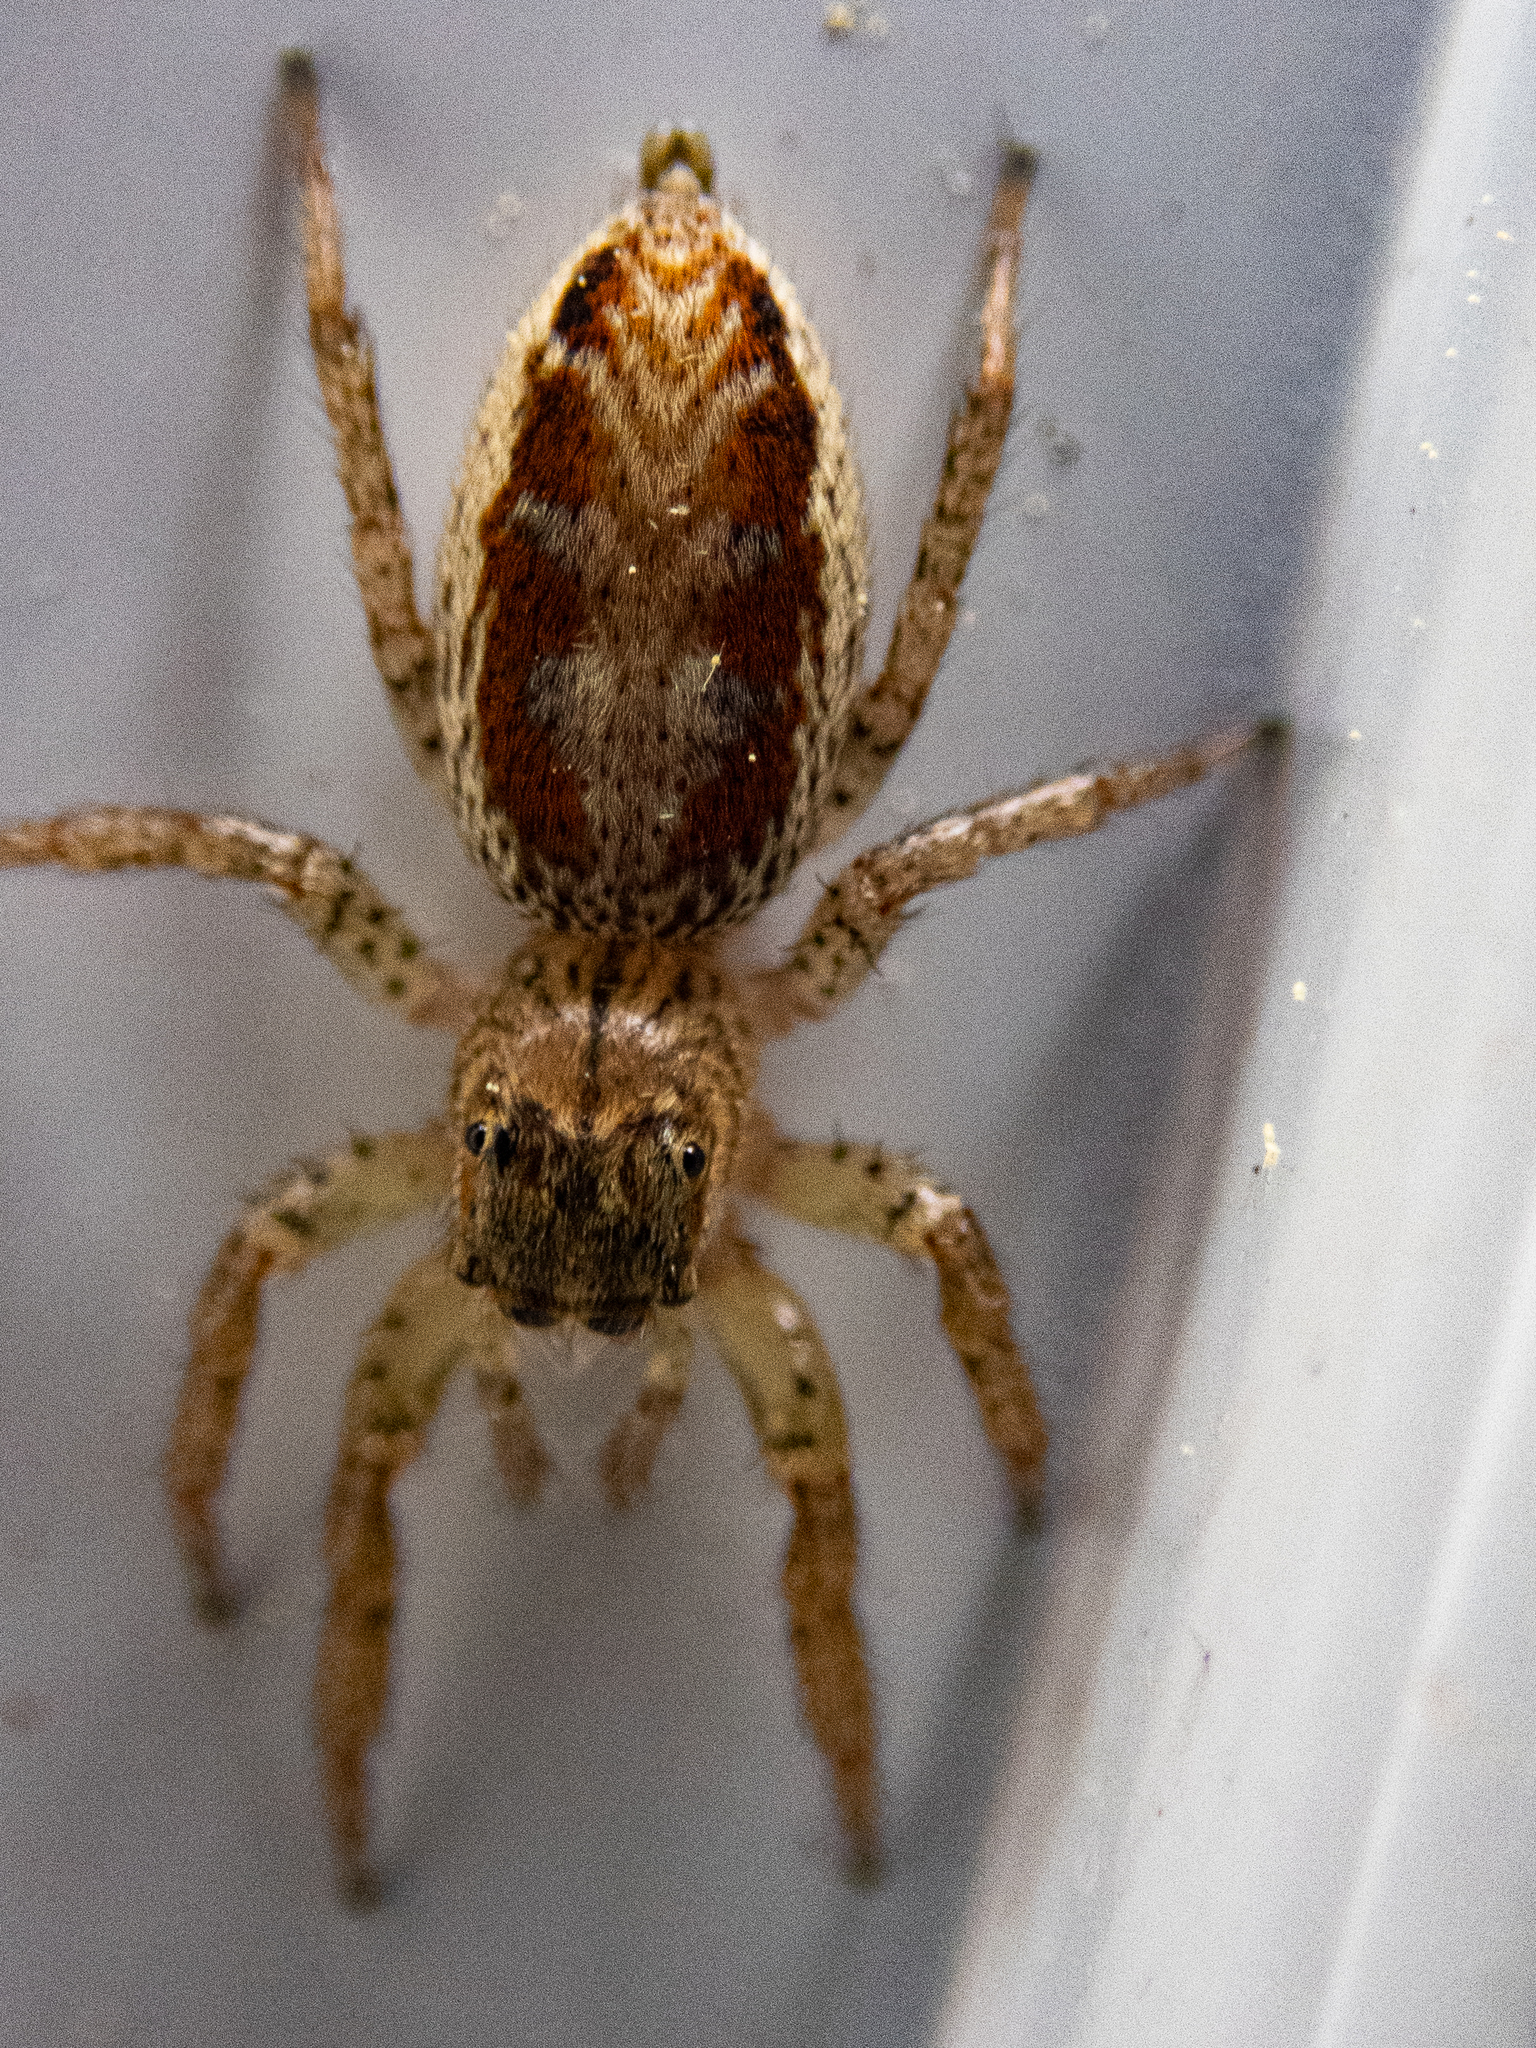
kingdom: Animalia
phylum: Arthropoda
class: Arachnida
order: Araneae
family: Salticidae
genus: Maevia
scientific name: Maevia inclemens
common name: Dimorphic jumper
